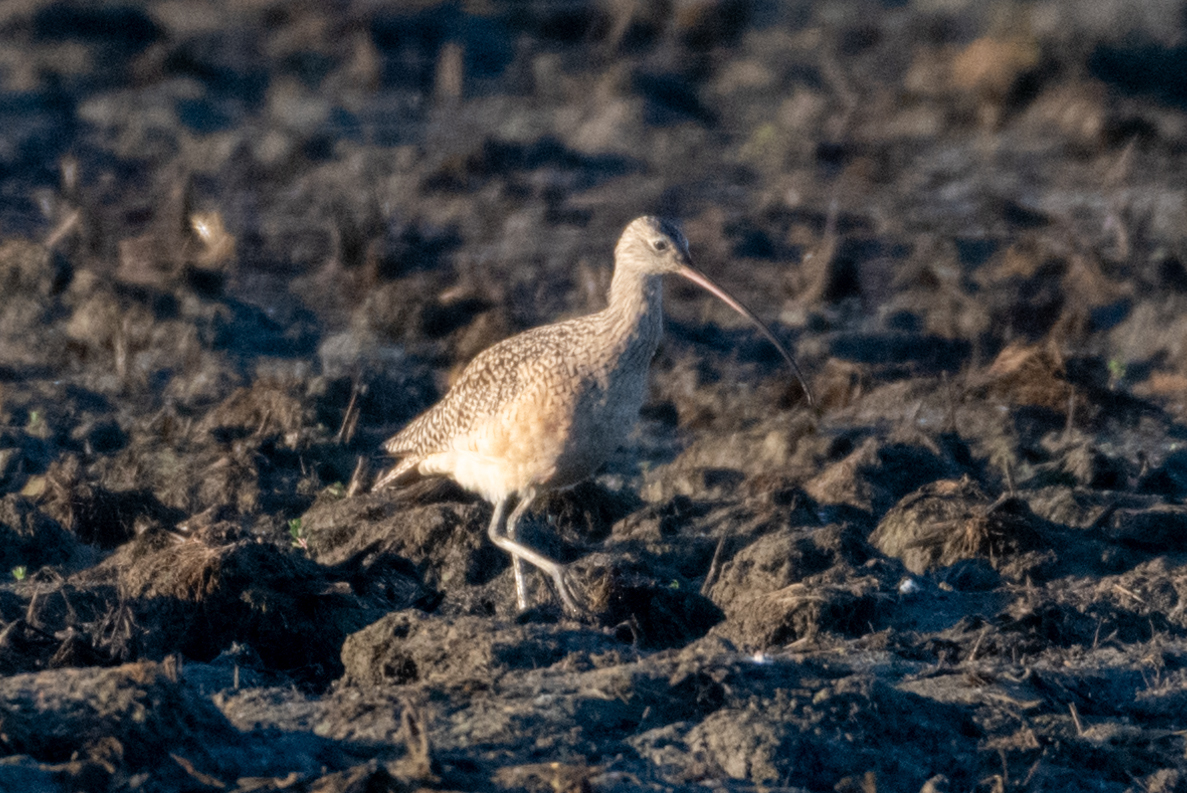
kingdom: Animalia
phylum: Chordata
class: Aves
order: Charadriiformes
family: Scolopacidae
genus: Numenius
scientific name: Numenius americanus
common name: Long-billed curlew
